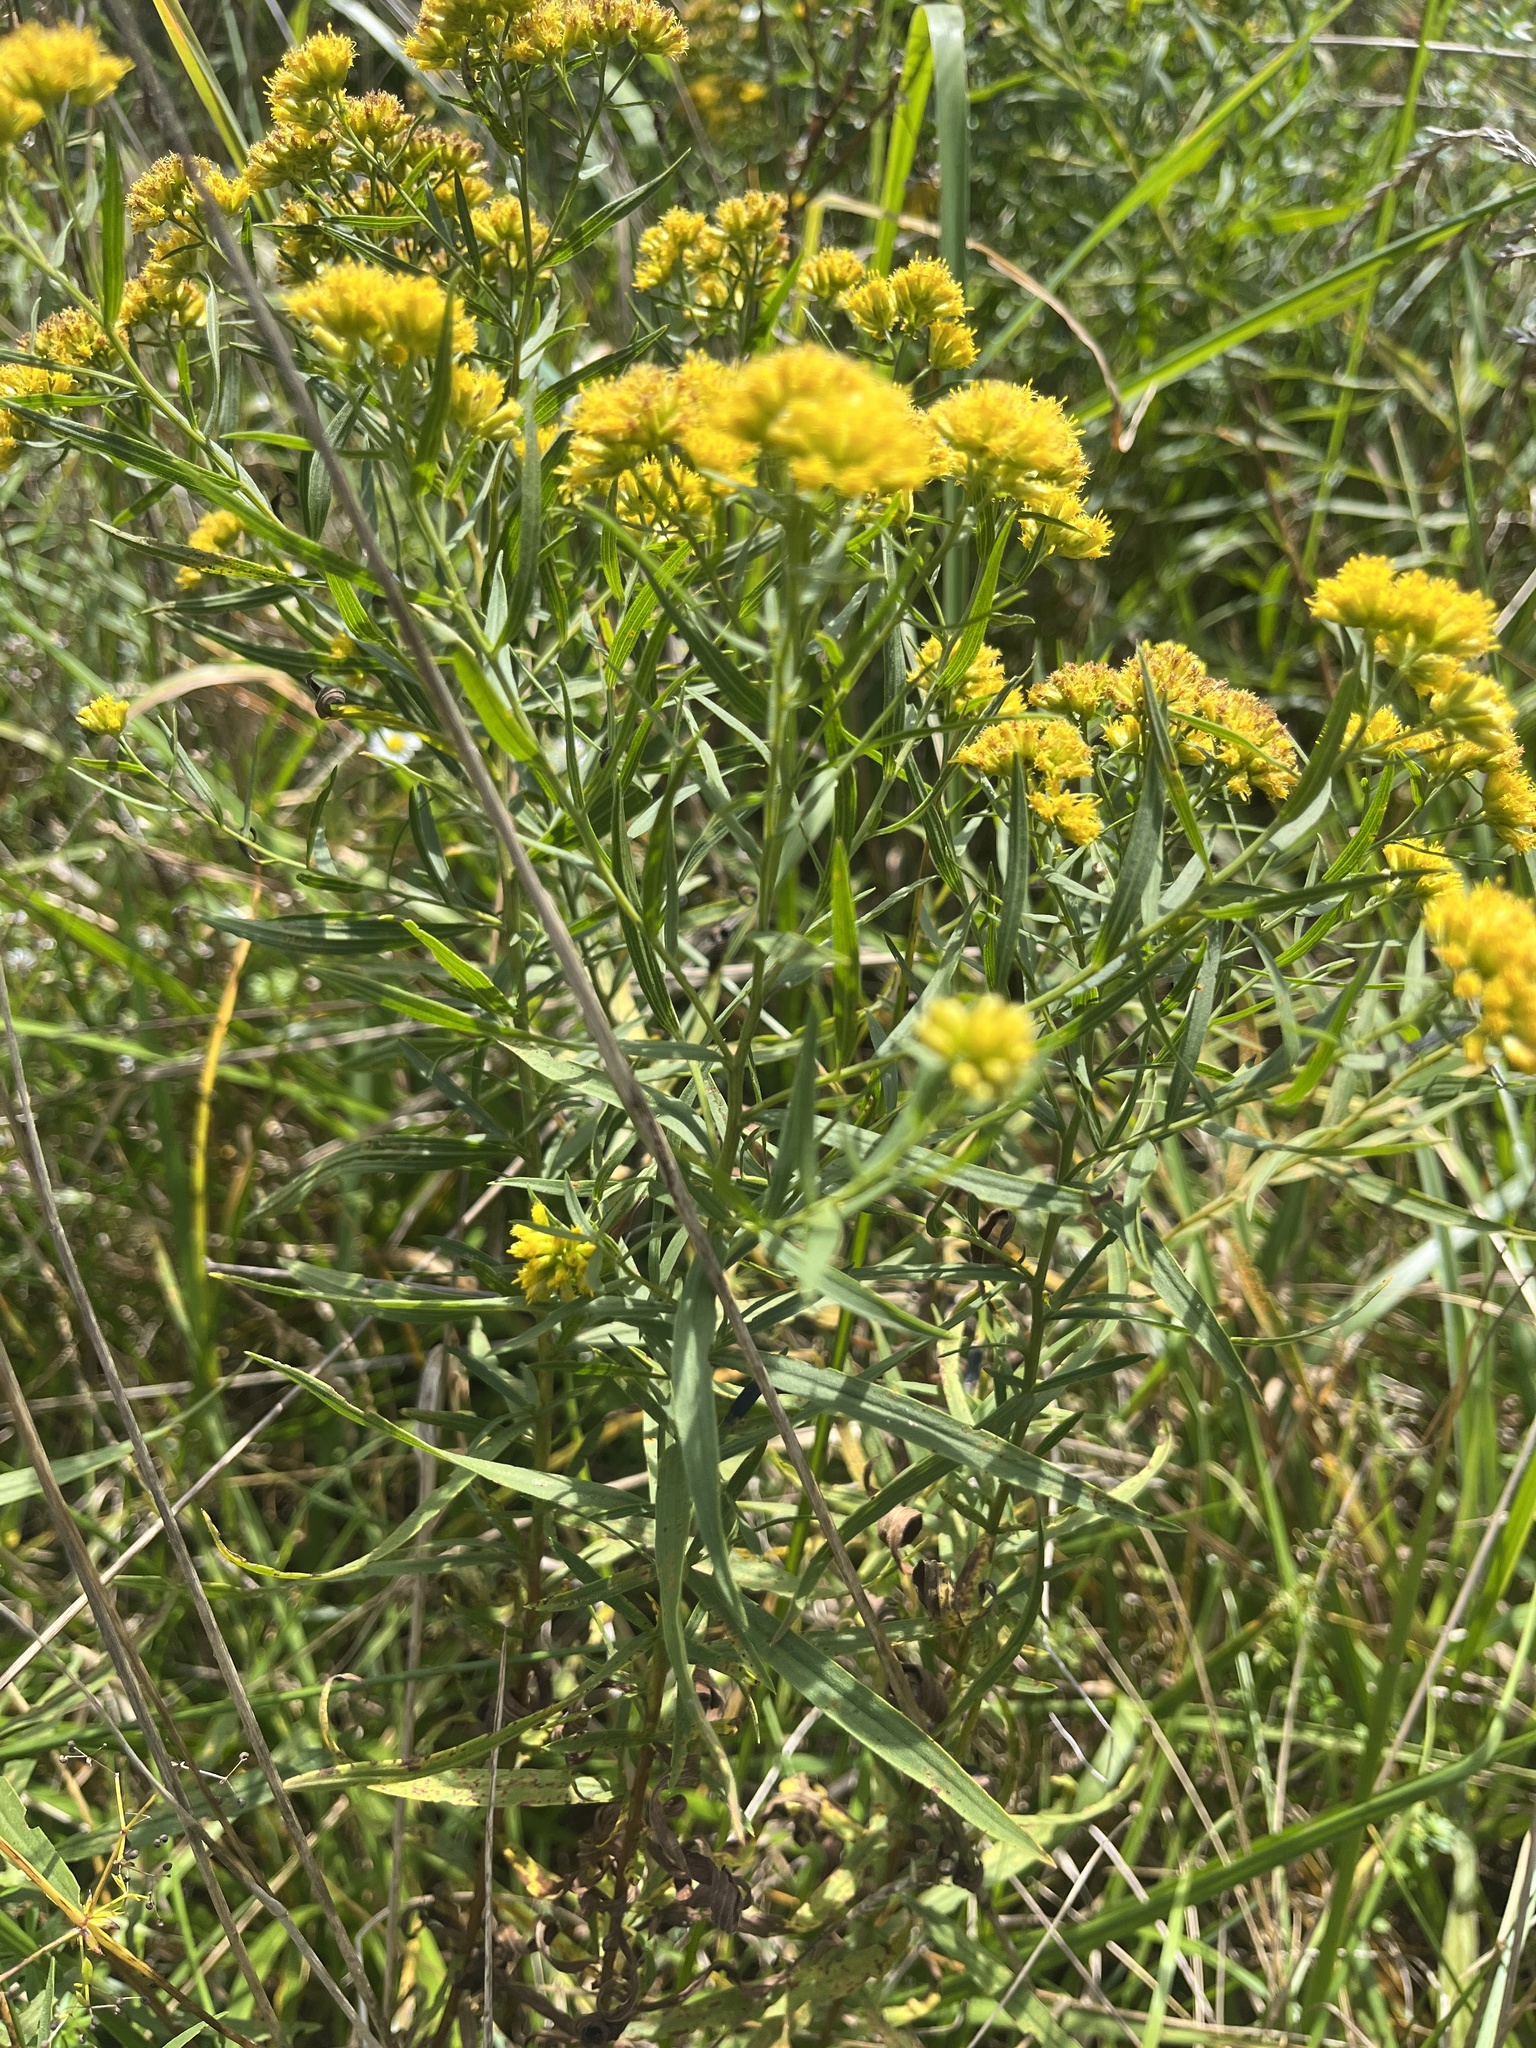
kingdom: Plantae
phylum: Tracheophyta
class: Magnoliopsida
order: Asterales
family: Asteraceae
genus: Euthamia
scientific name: Euthamia graminifolia
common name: Common goldentop
